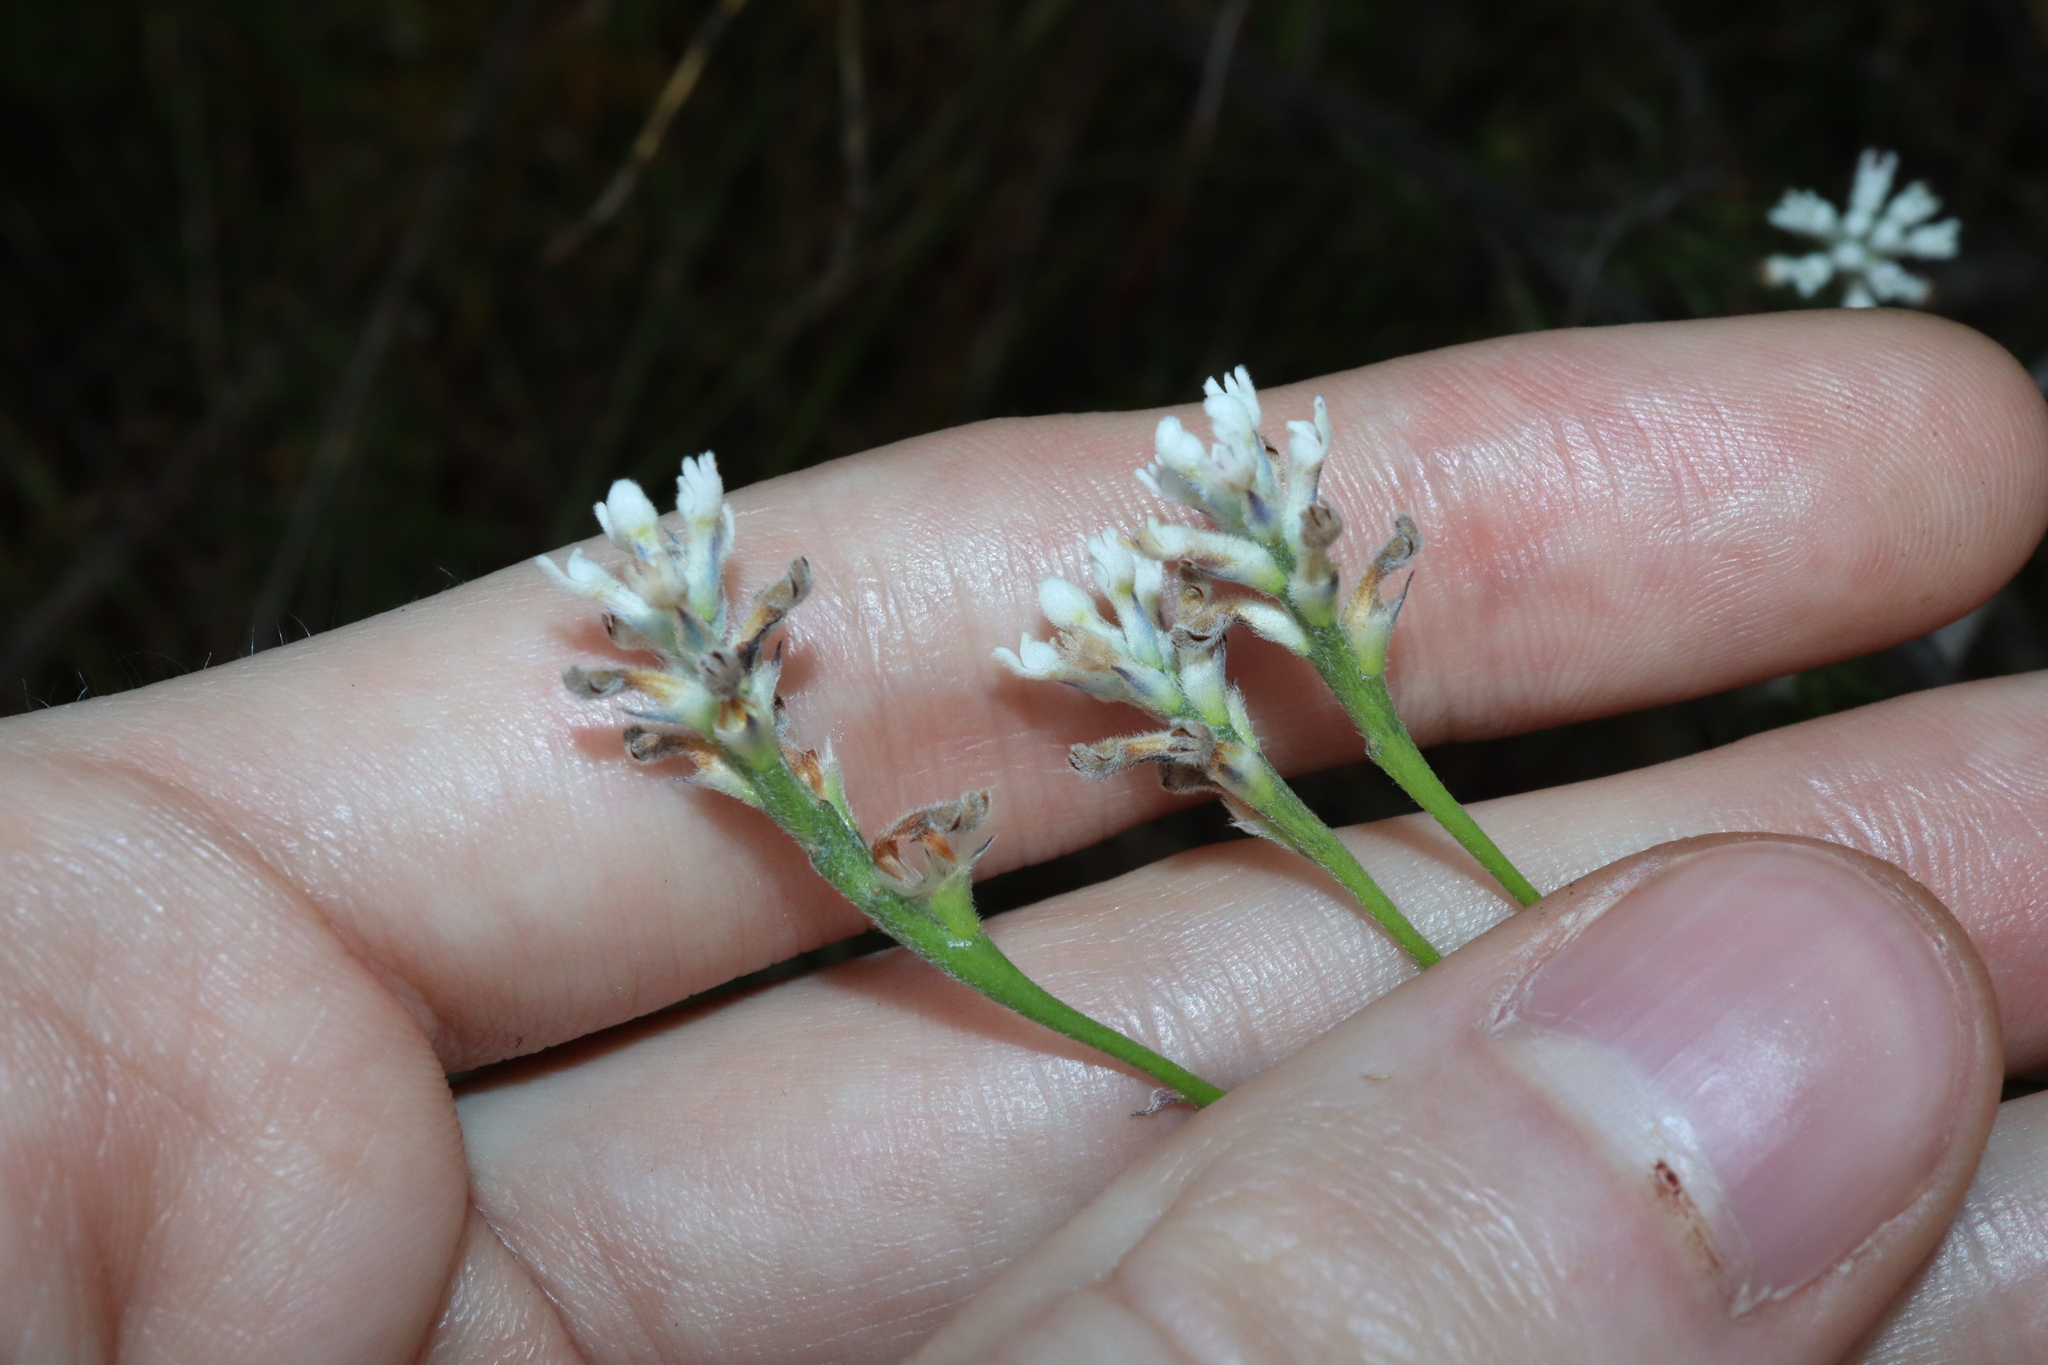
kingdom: Plantae
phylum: Tracheophyta
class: Magnoliopsida
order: Proteales
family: Proteaceae
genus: Conospermum
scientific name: Conospermum ericifolium
